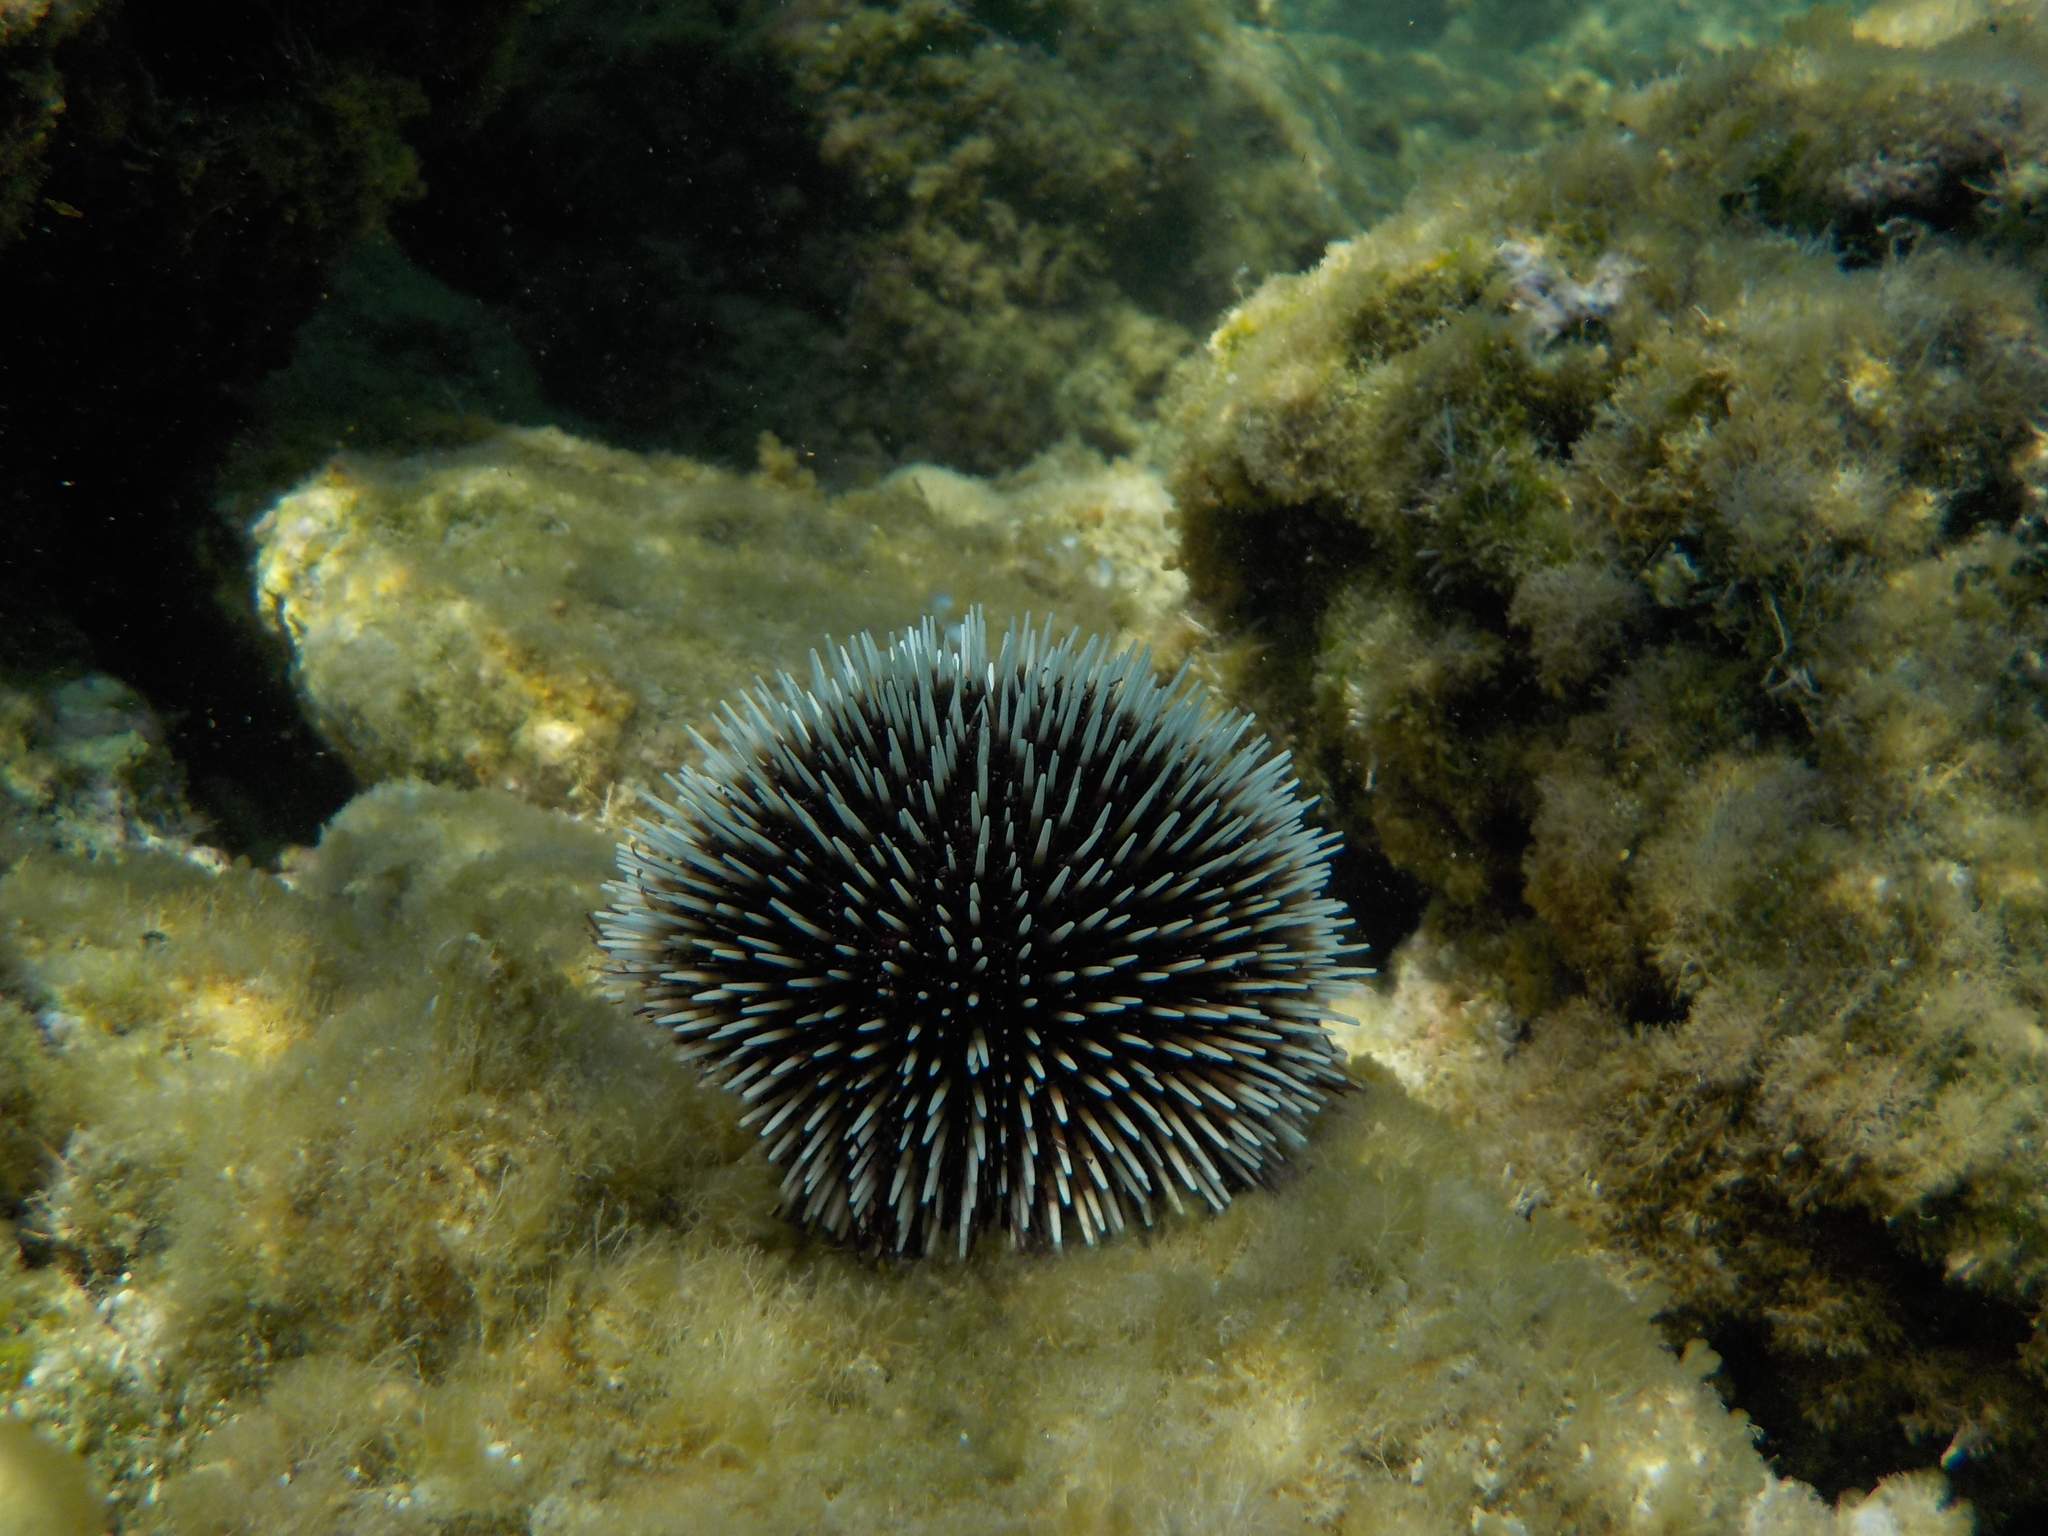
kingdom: Animalia
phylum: Echinodermata
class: Echinoidea
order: Camarodonta
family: Toxopneustidae
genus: Sphaerechinus
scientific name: Sphaerechinus granularis
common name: Violet sea urchin
